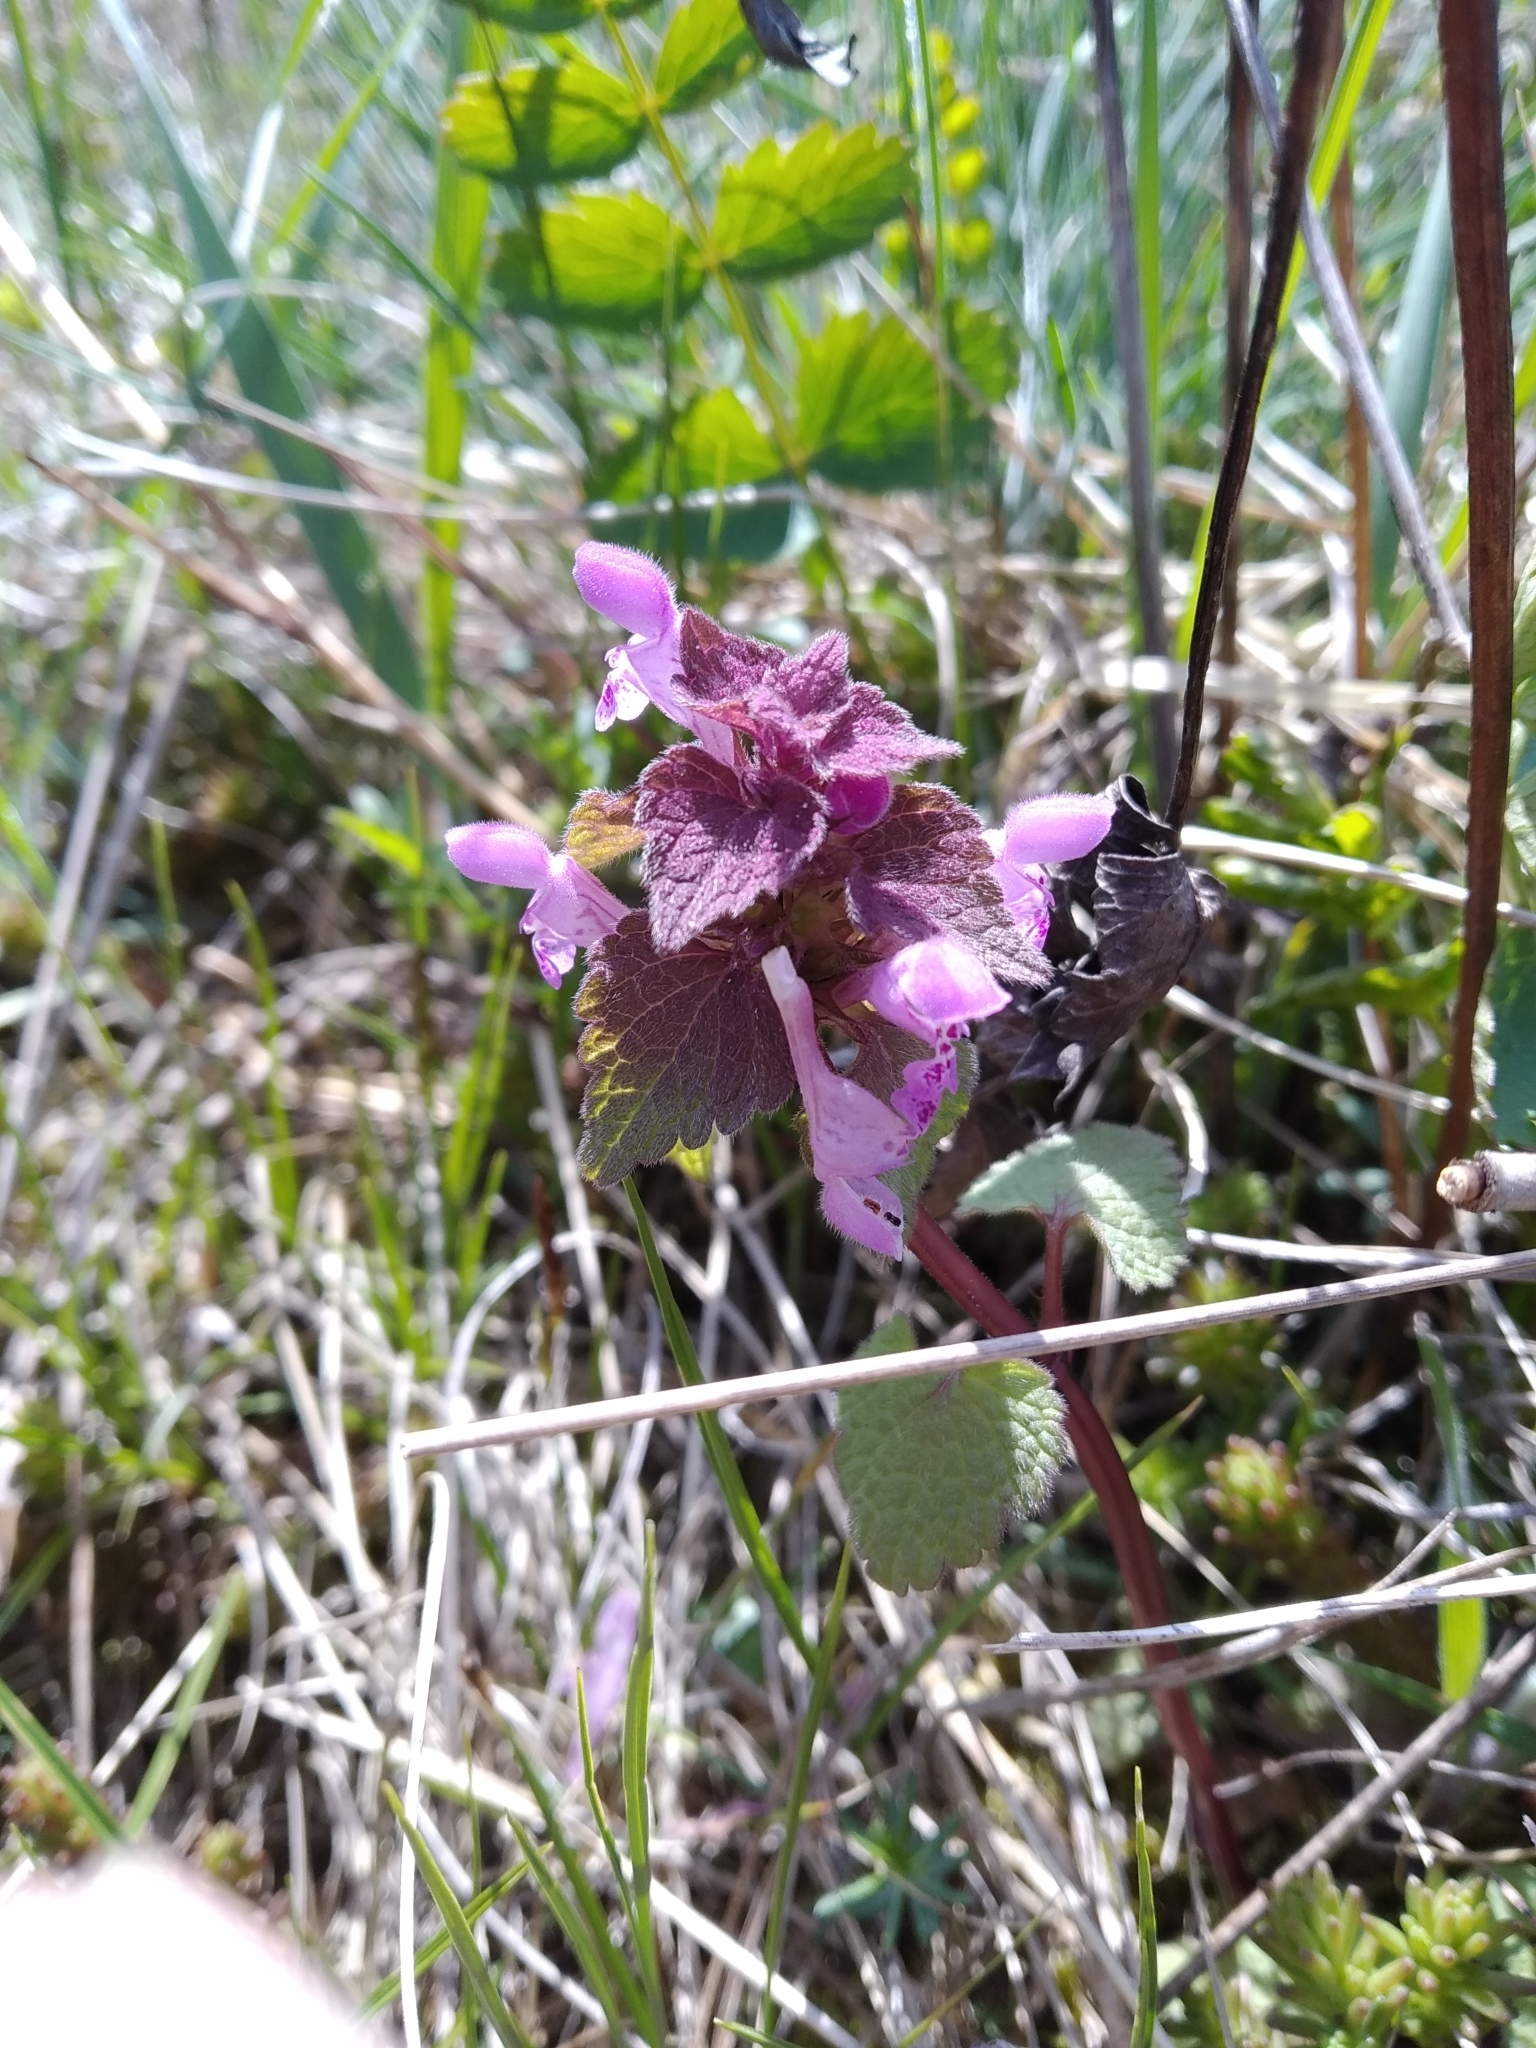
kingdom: Plantae
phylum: Tracheophyta
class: Magnoliopsida
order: Lamiales
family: Lamiaceae
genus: Lamium
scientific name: Lamium purpureum
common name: Red dead-nettle
